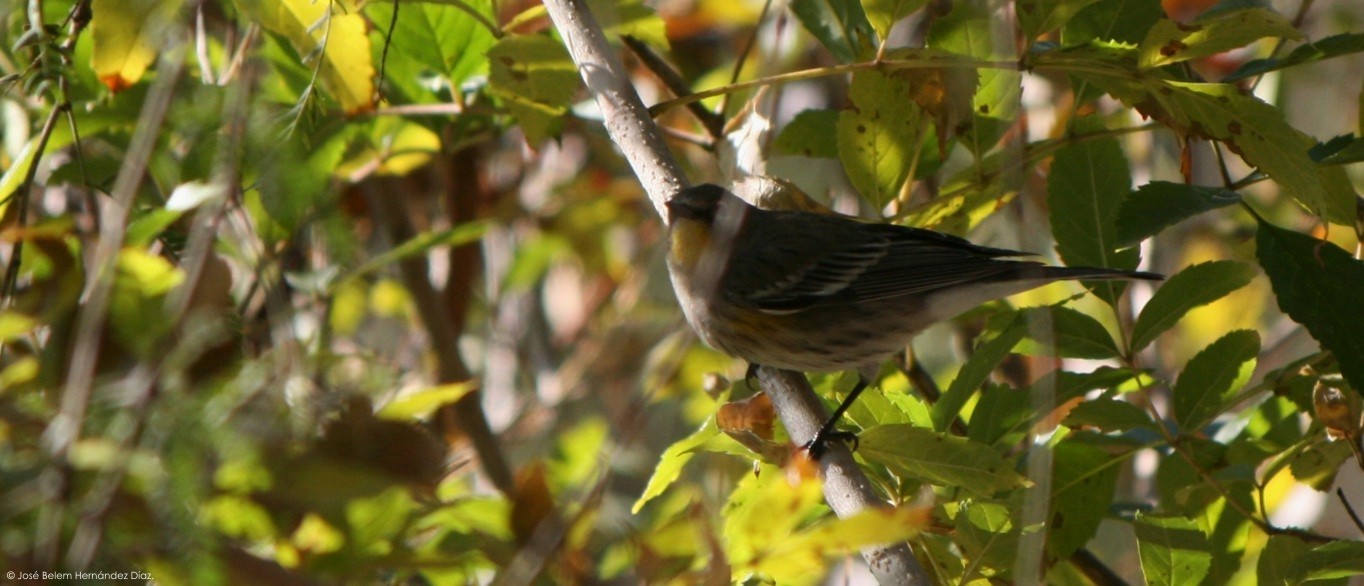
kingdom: Animalia
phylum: Chordata
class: Aves
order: Passeriformes
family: Parulidae
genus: Setophaga
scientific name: Setophaga auduboni
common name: Audubon's warbler
